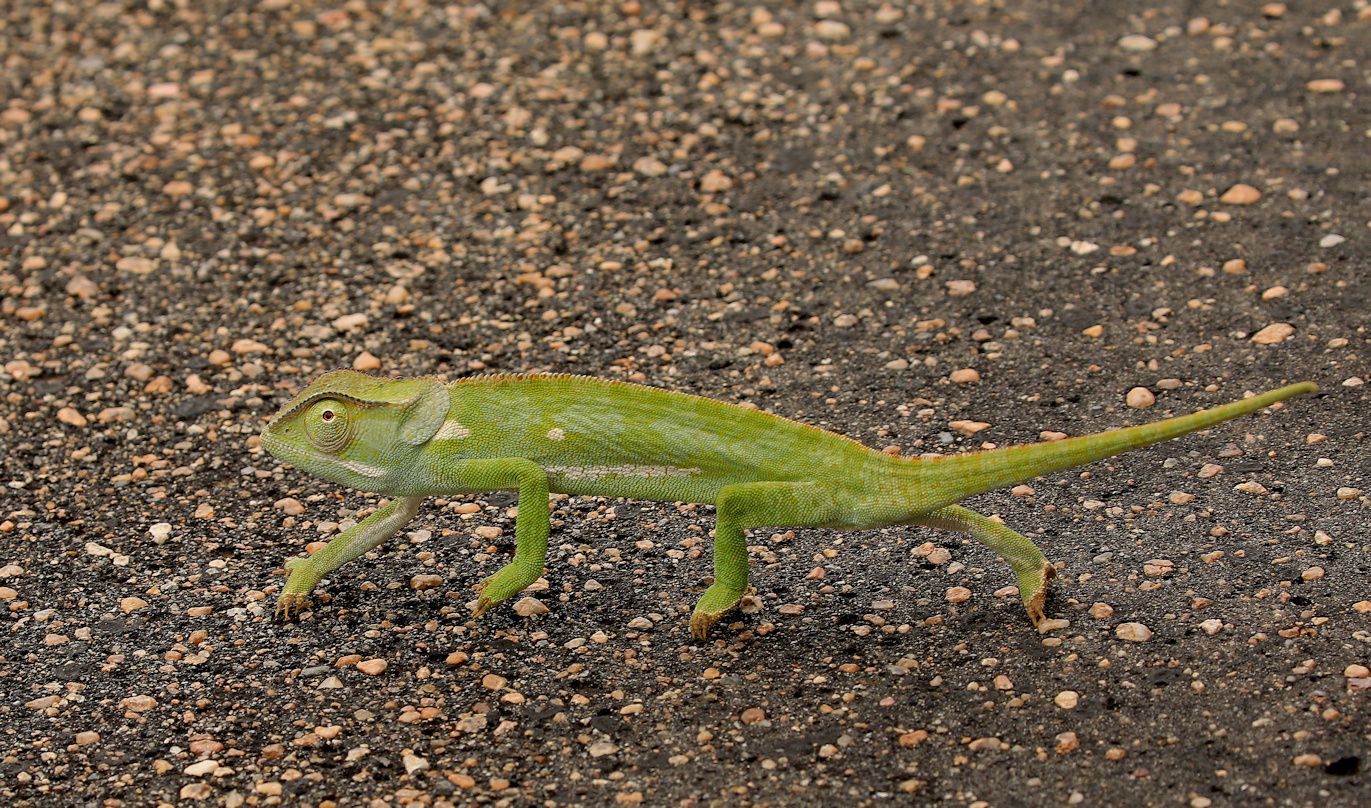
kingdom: Animalia
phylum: Chordata
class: Squamata
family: Chamaeleonidae
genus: Chamaeleo
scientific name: Chamaeleo dilepis
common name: Flapneck chameleon
